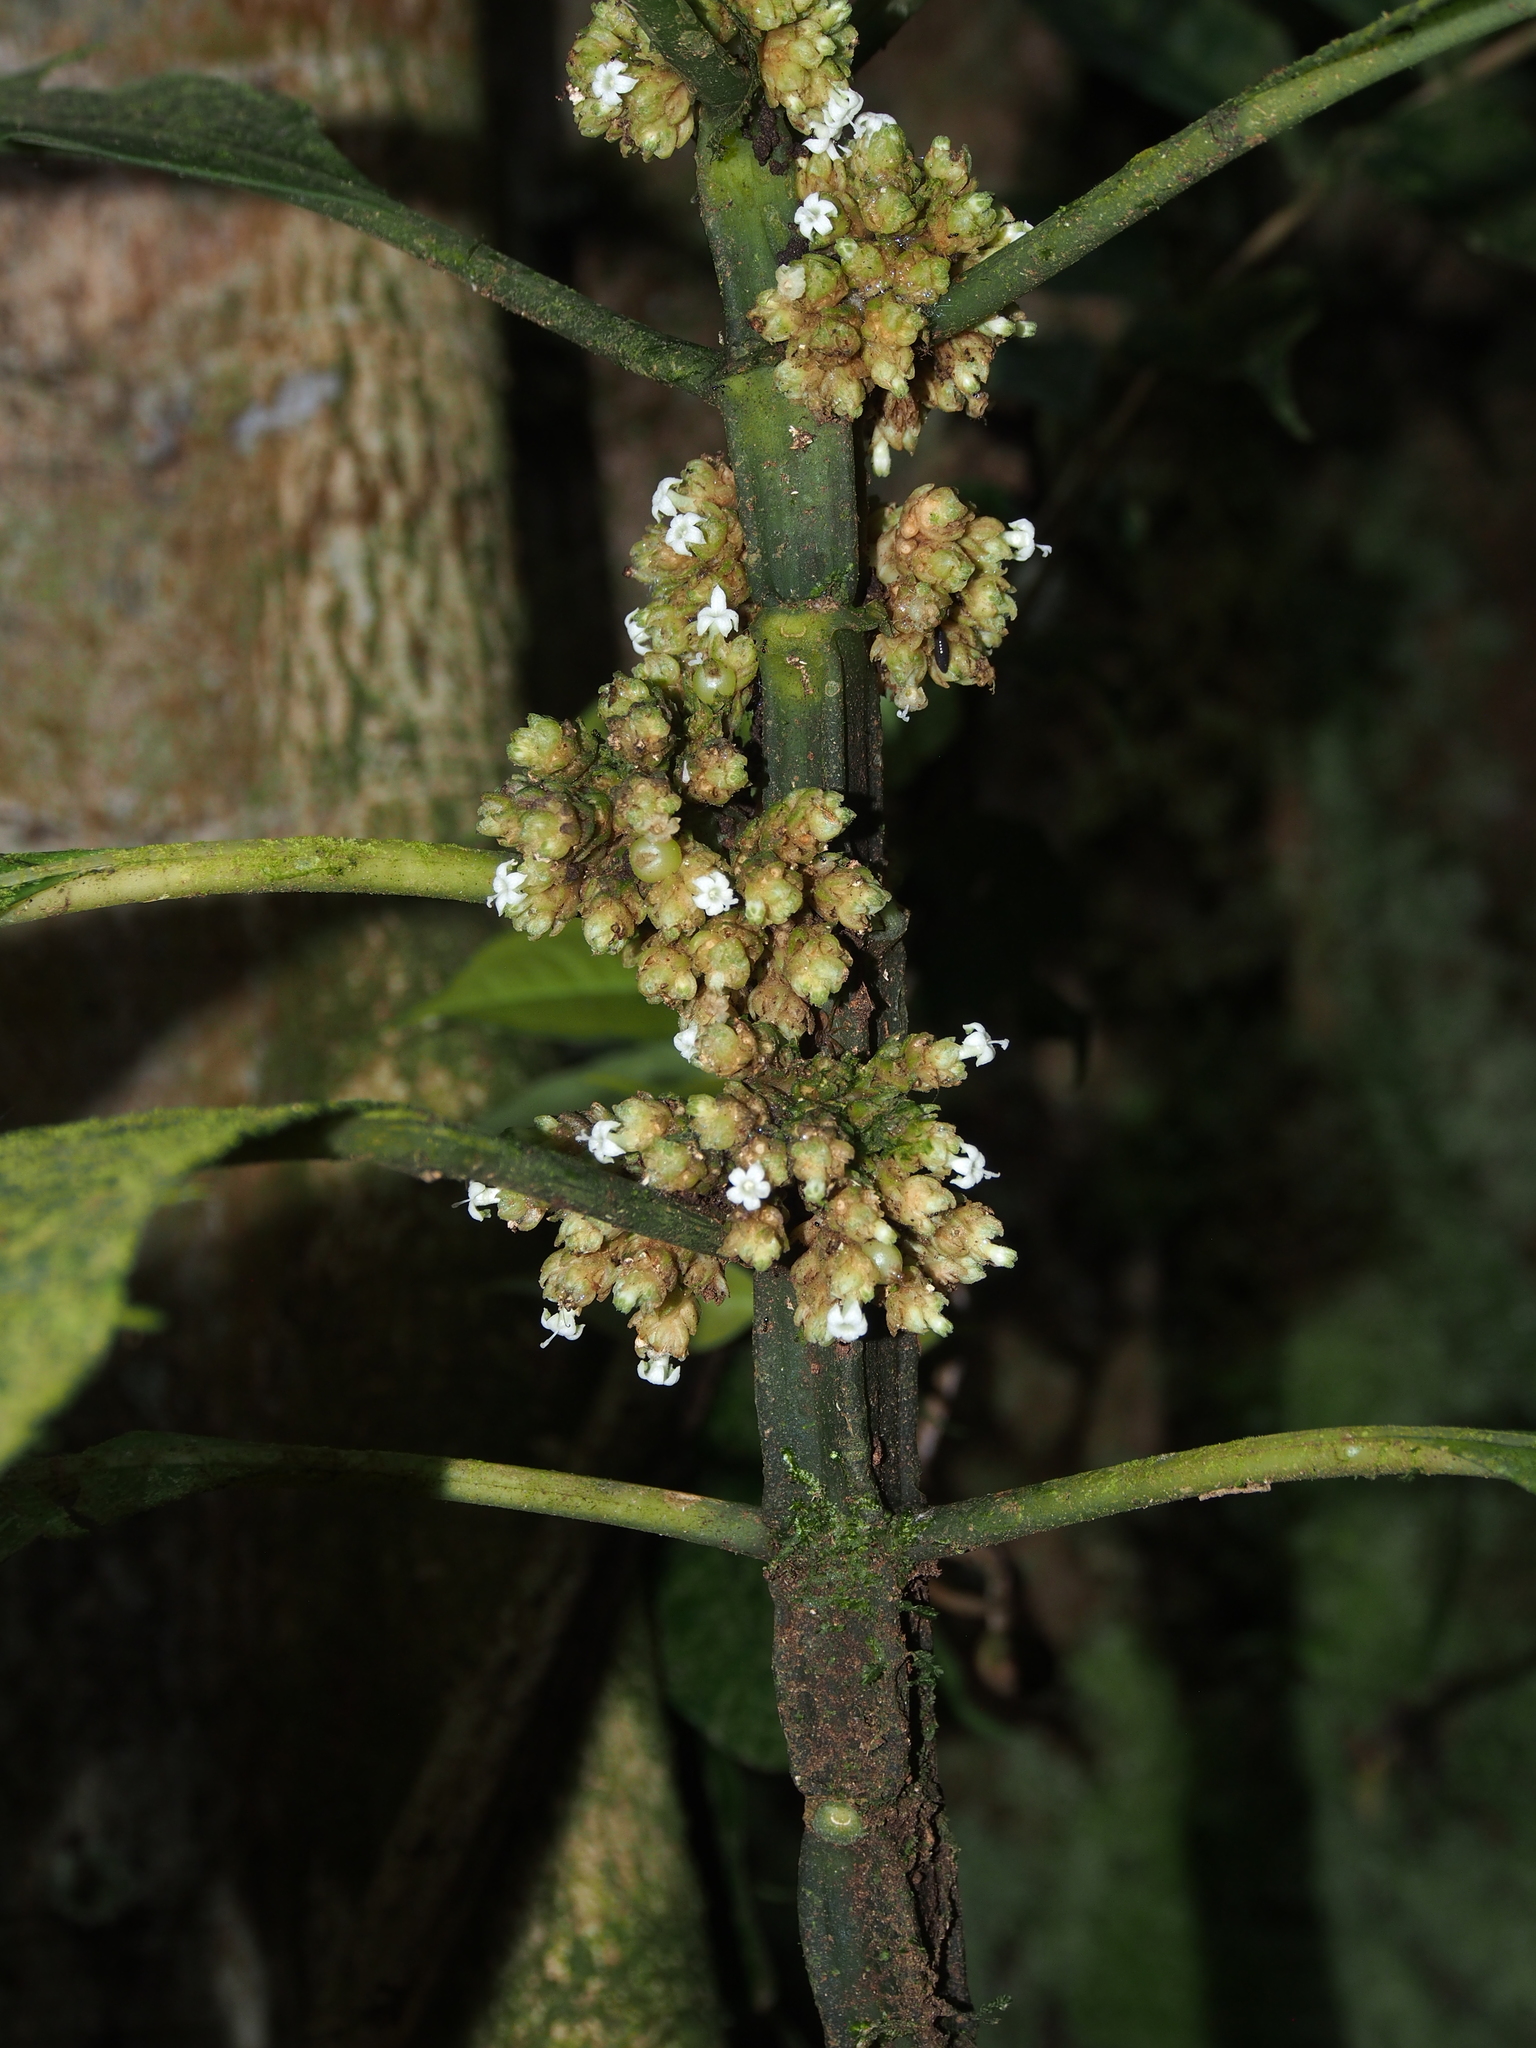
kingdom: Plantae
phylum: Tracheophyta
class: Magnoliopsida
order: Gentianales
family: Rubiaceae
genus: Notopleura
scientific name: Notopleura capitata
